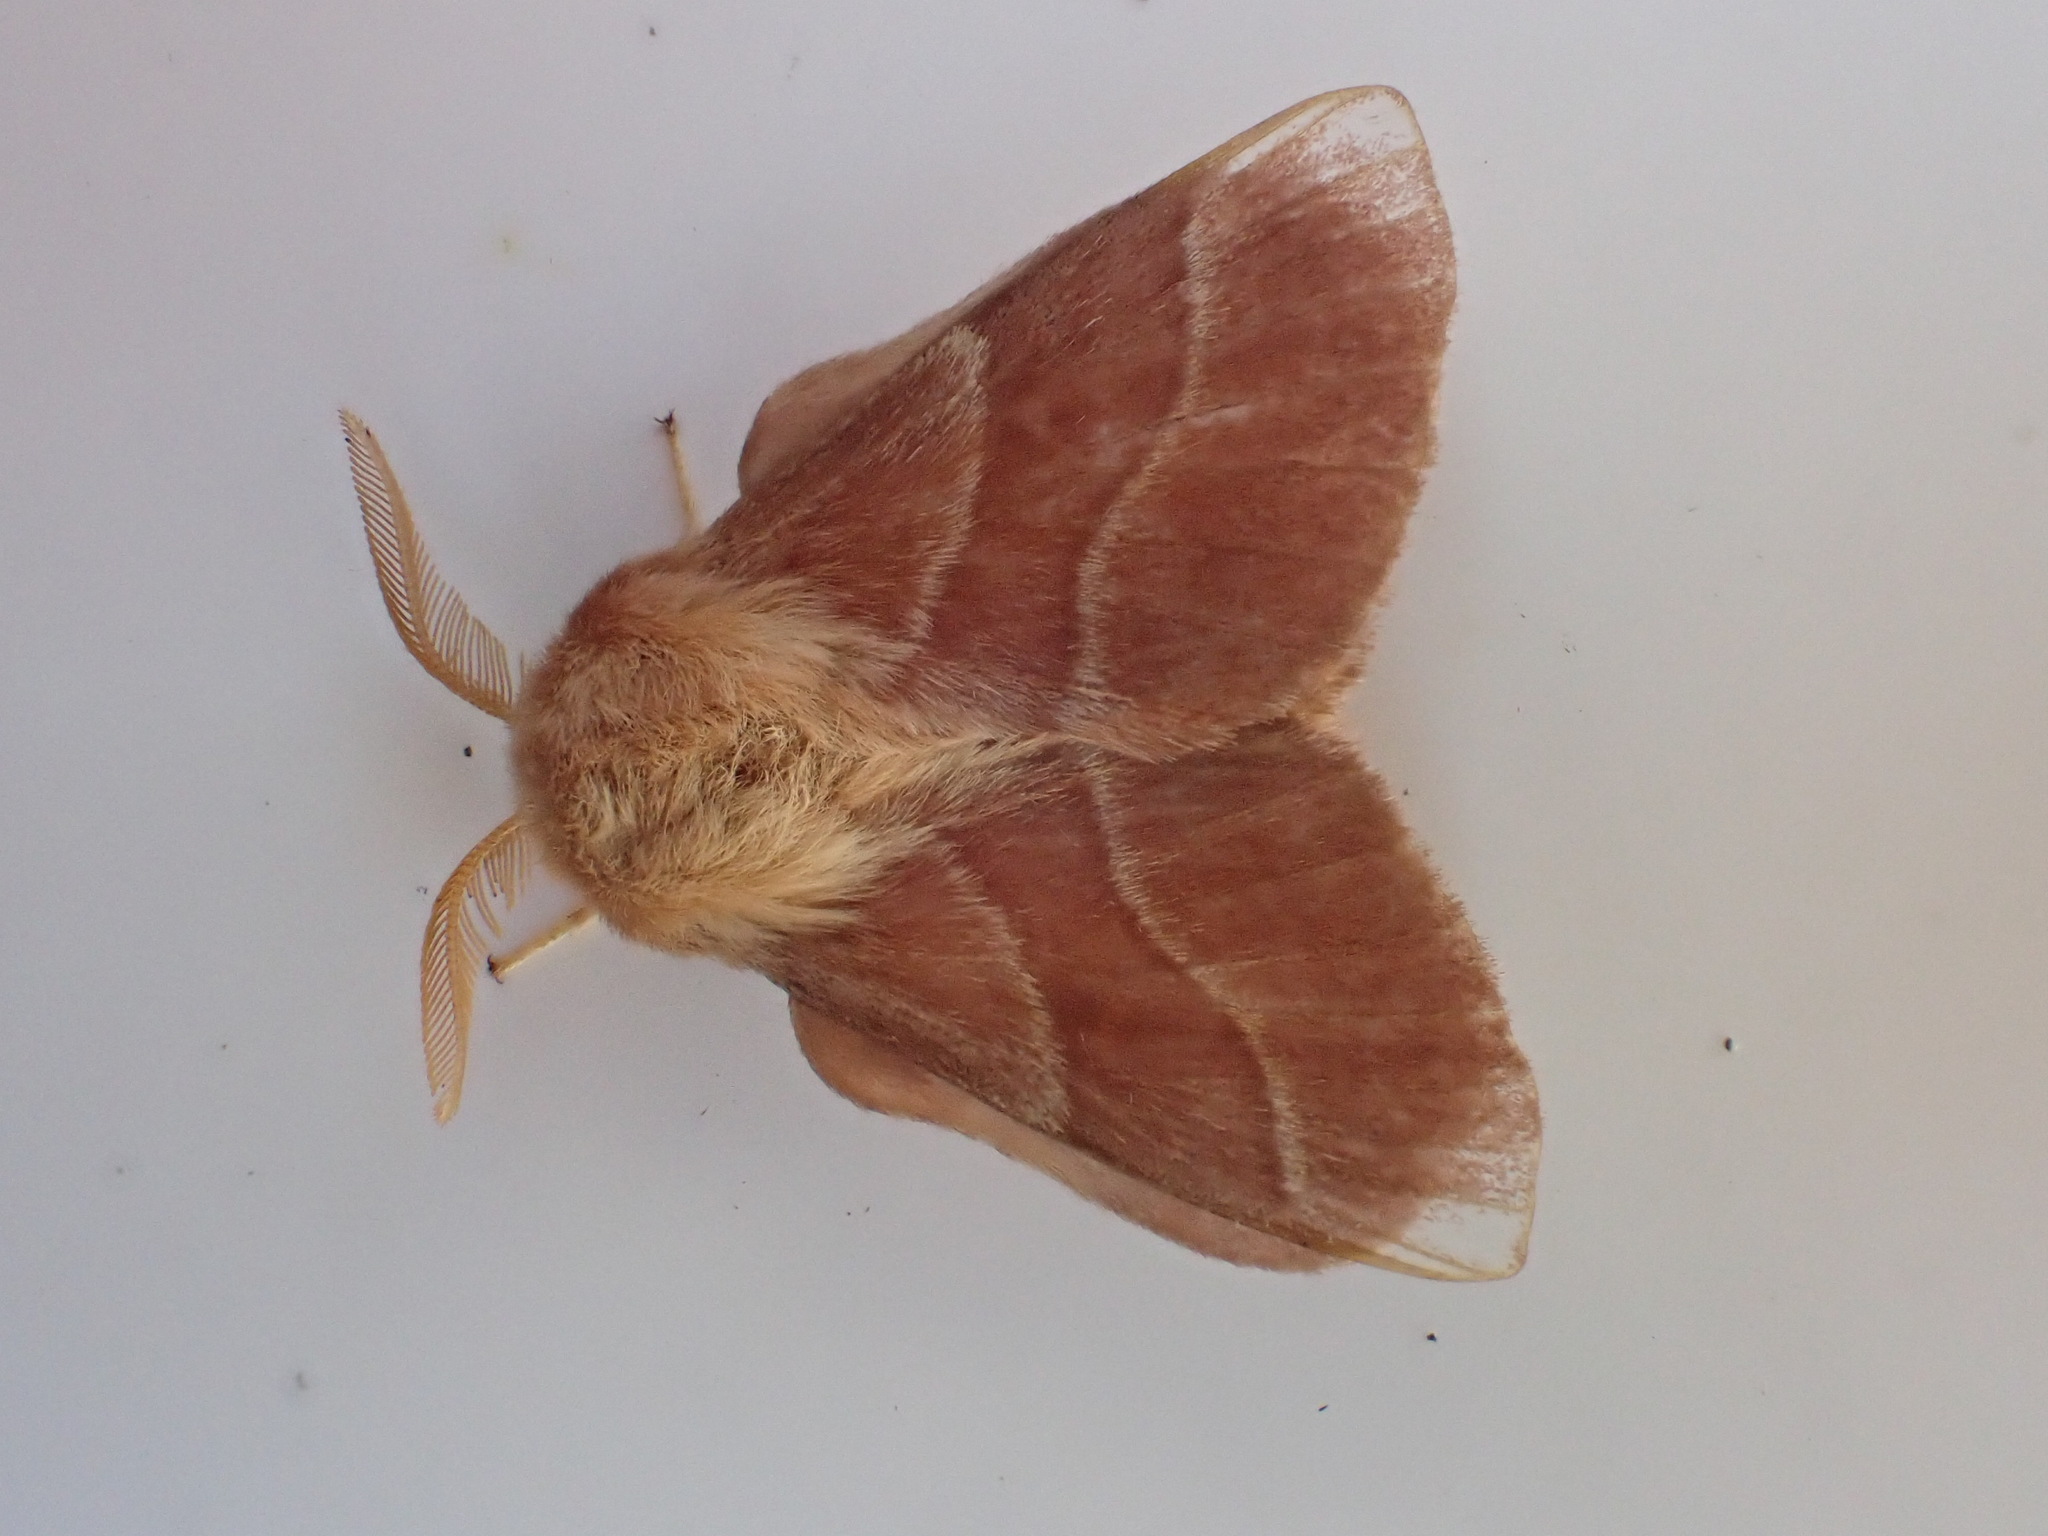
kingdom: Animalia
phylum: Arthropoda
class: Insecta
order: Lepidoptera
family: Lasiocampidae
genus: Malacosoma
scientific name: Malacosoma neustria
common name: The lackey
